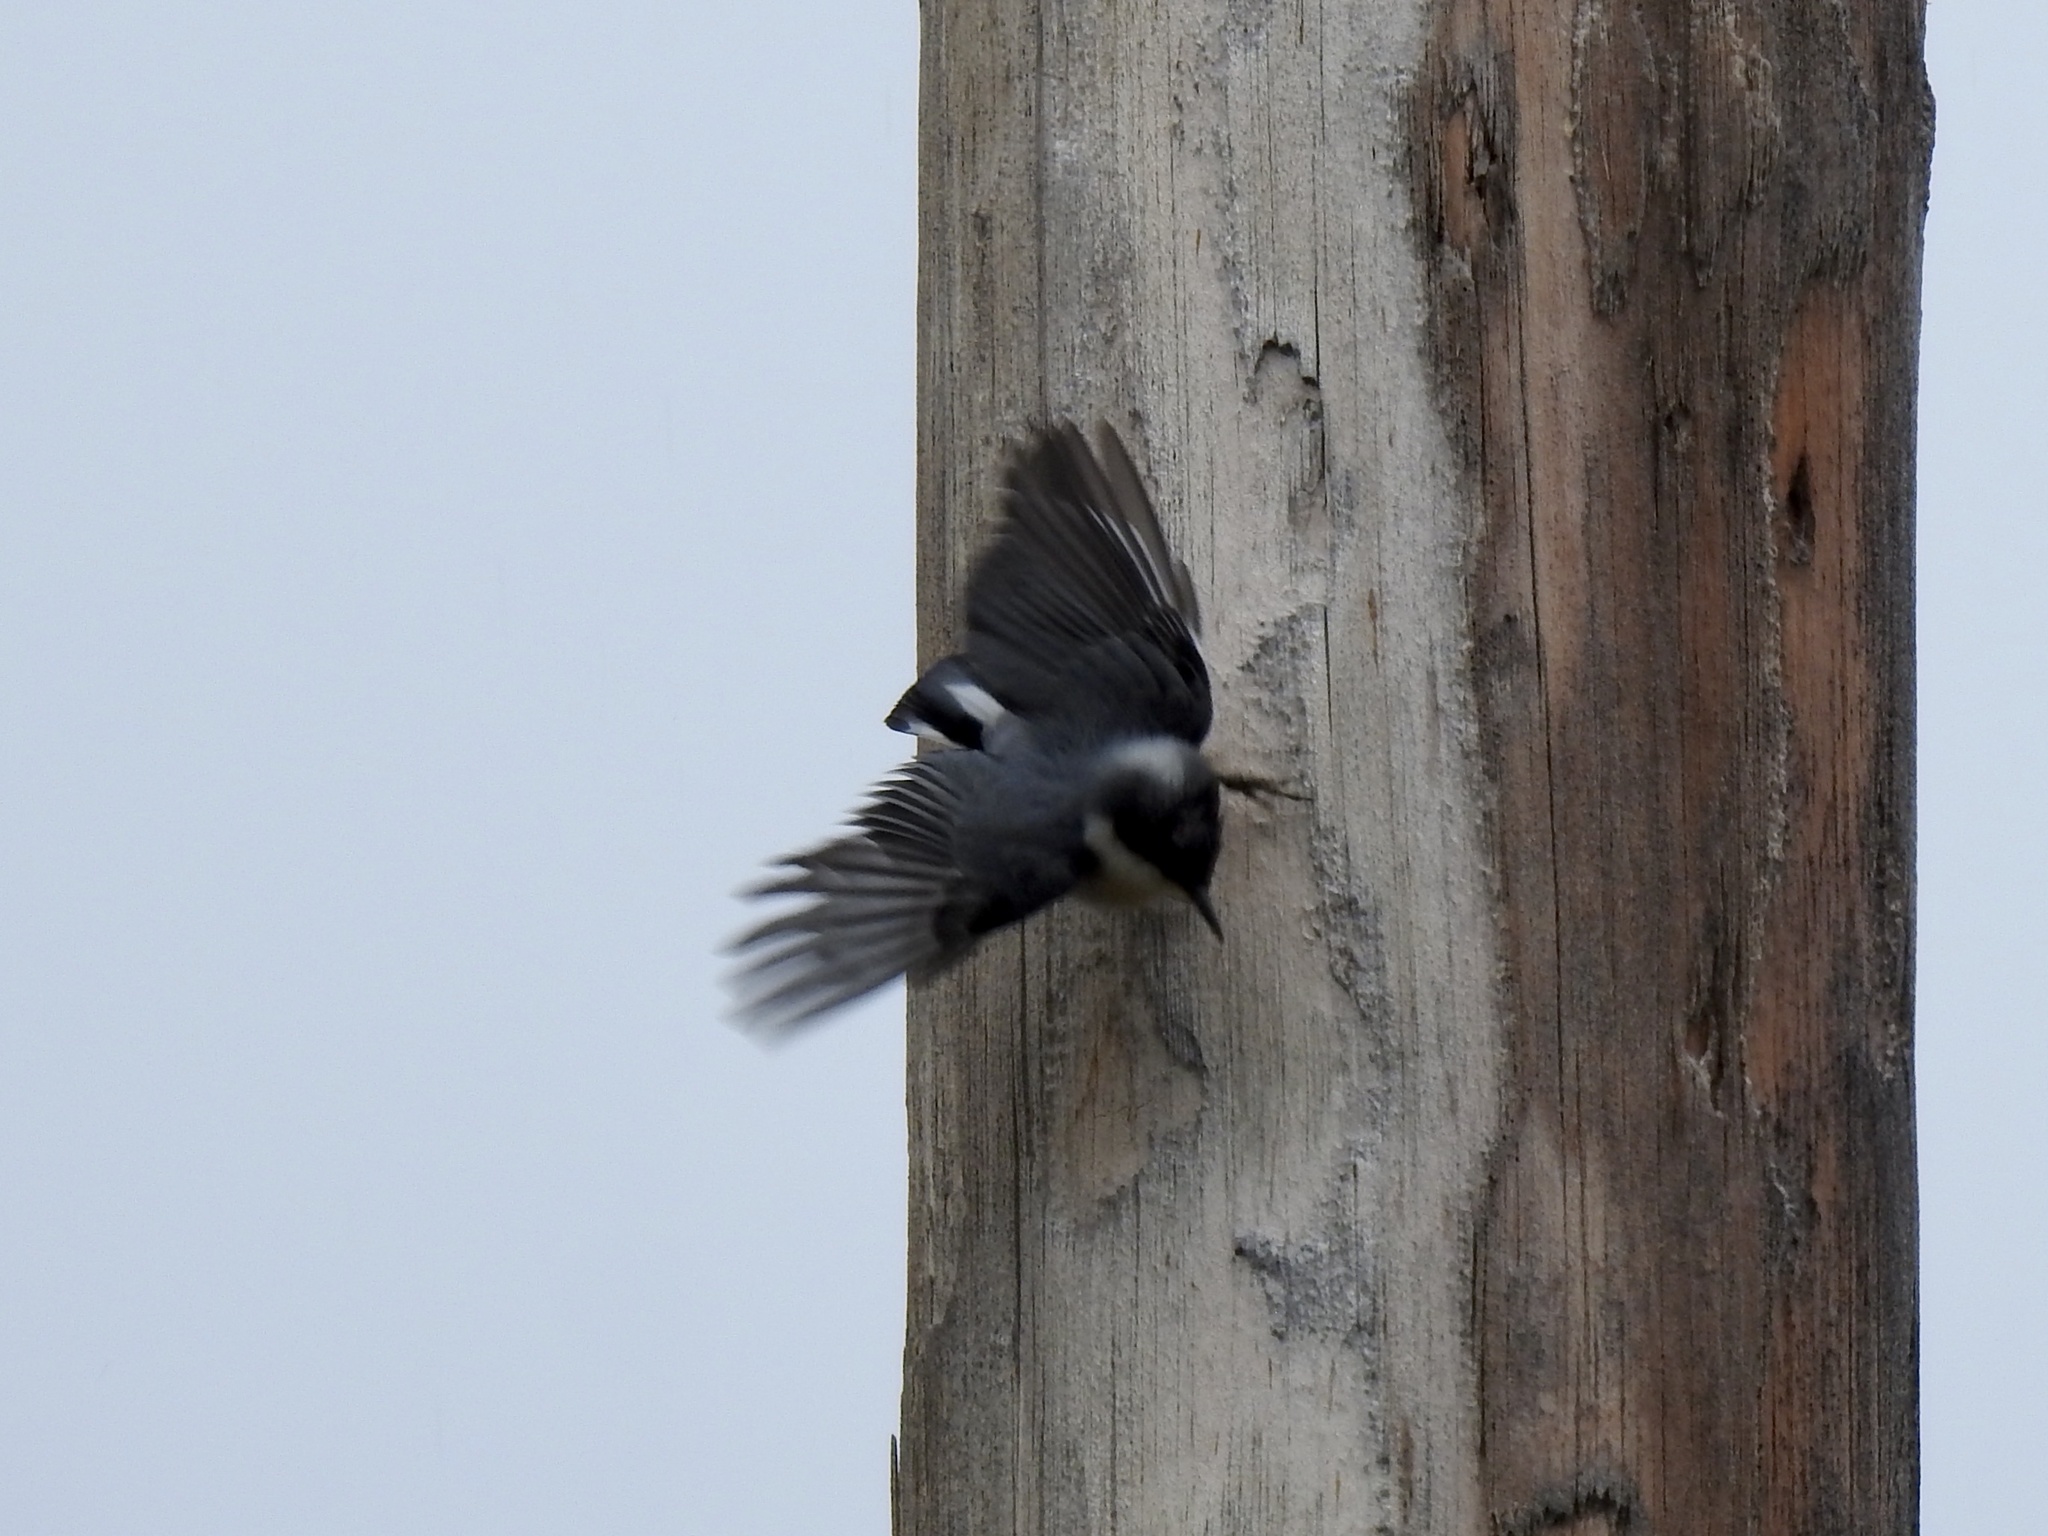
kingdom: Animalia
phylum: Chordata
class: Aves
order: Passeriformes
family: Sittidae
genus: Sitta
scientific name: Sitta pygmaea
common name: Pygmy nuthatch
